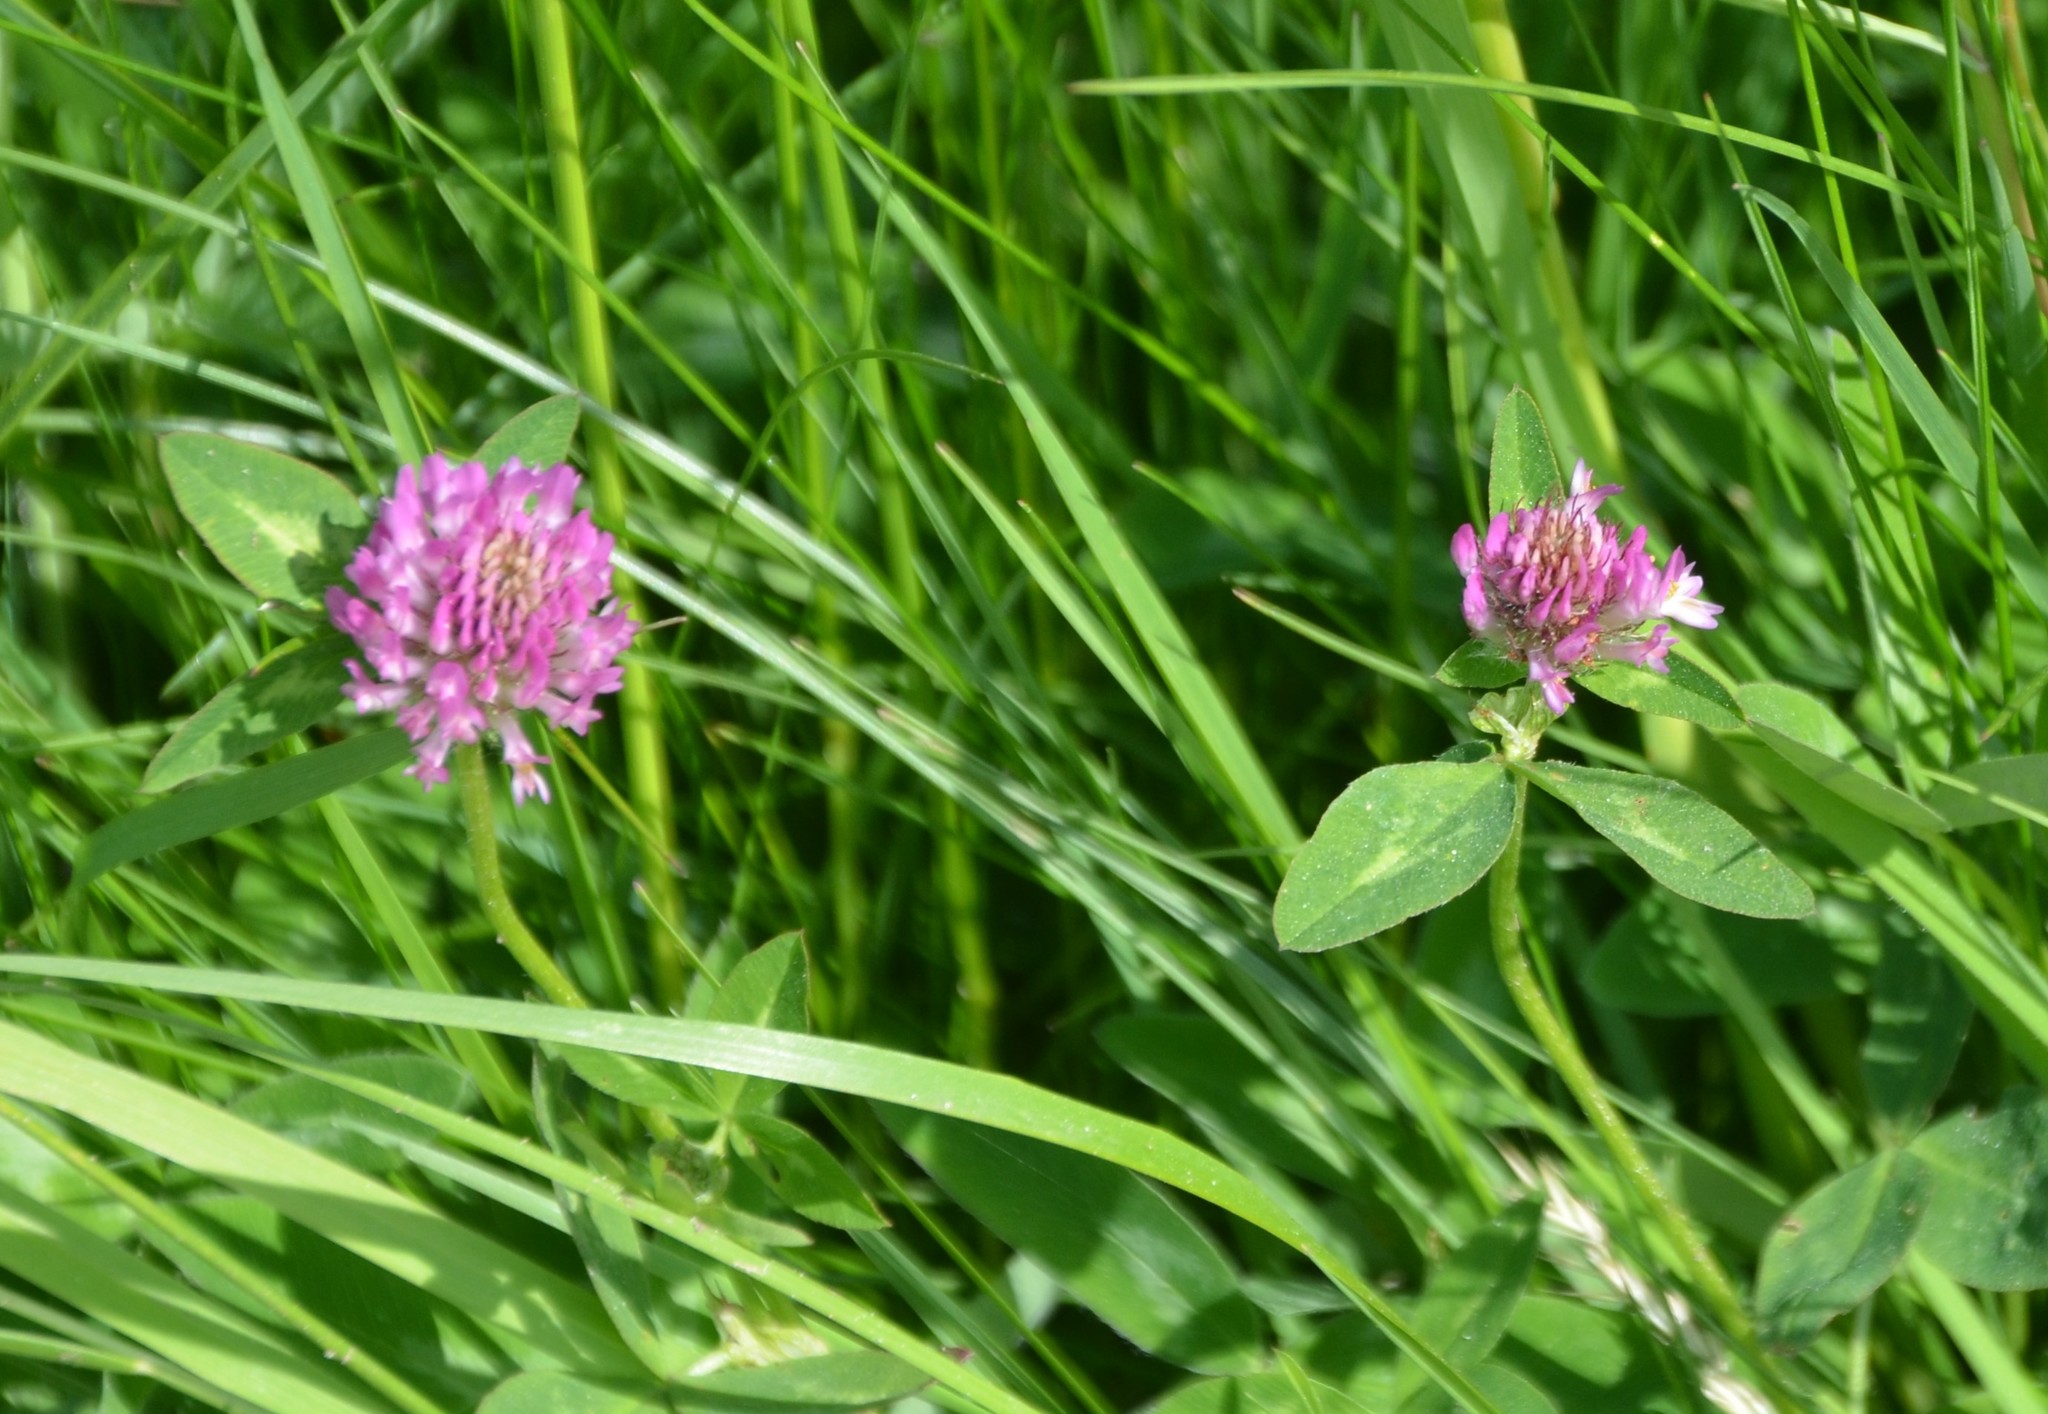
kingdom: Plantae
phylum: Tracheophyta
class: Magnoliopsida
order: Fabales
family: Fabaceae
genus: Trifolium
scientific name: Trifolium pratense
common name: Red clover
